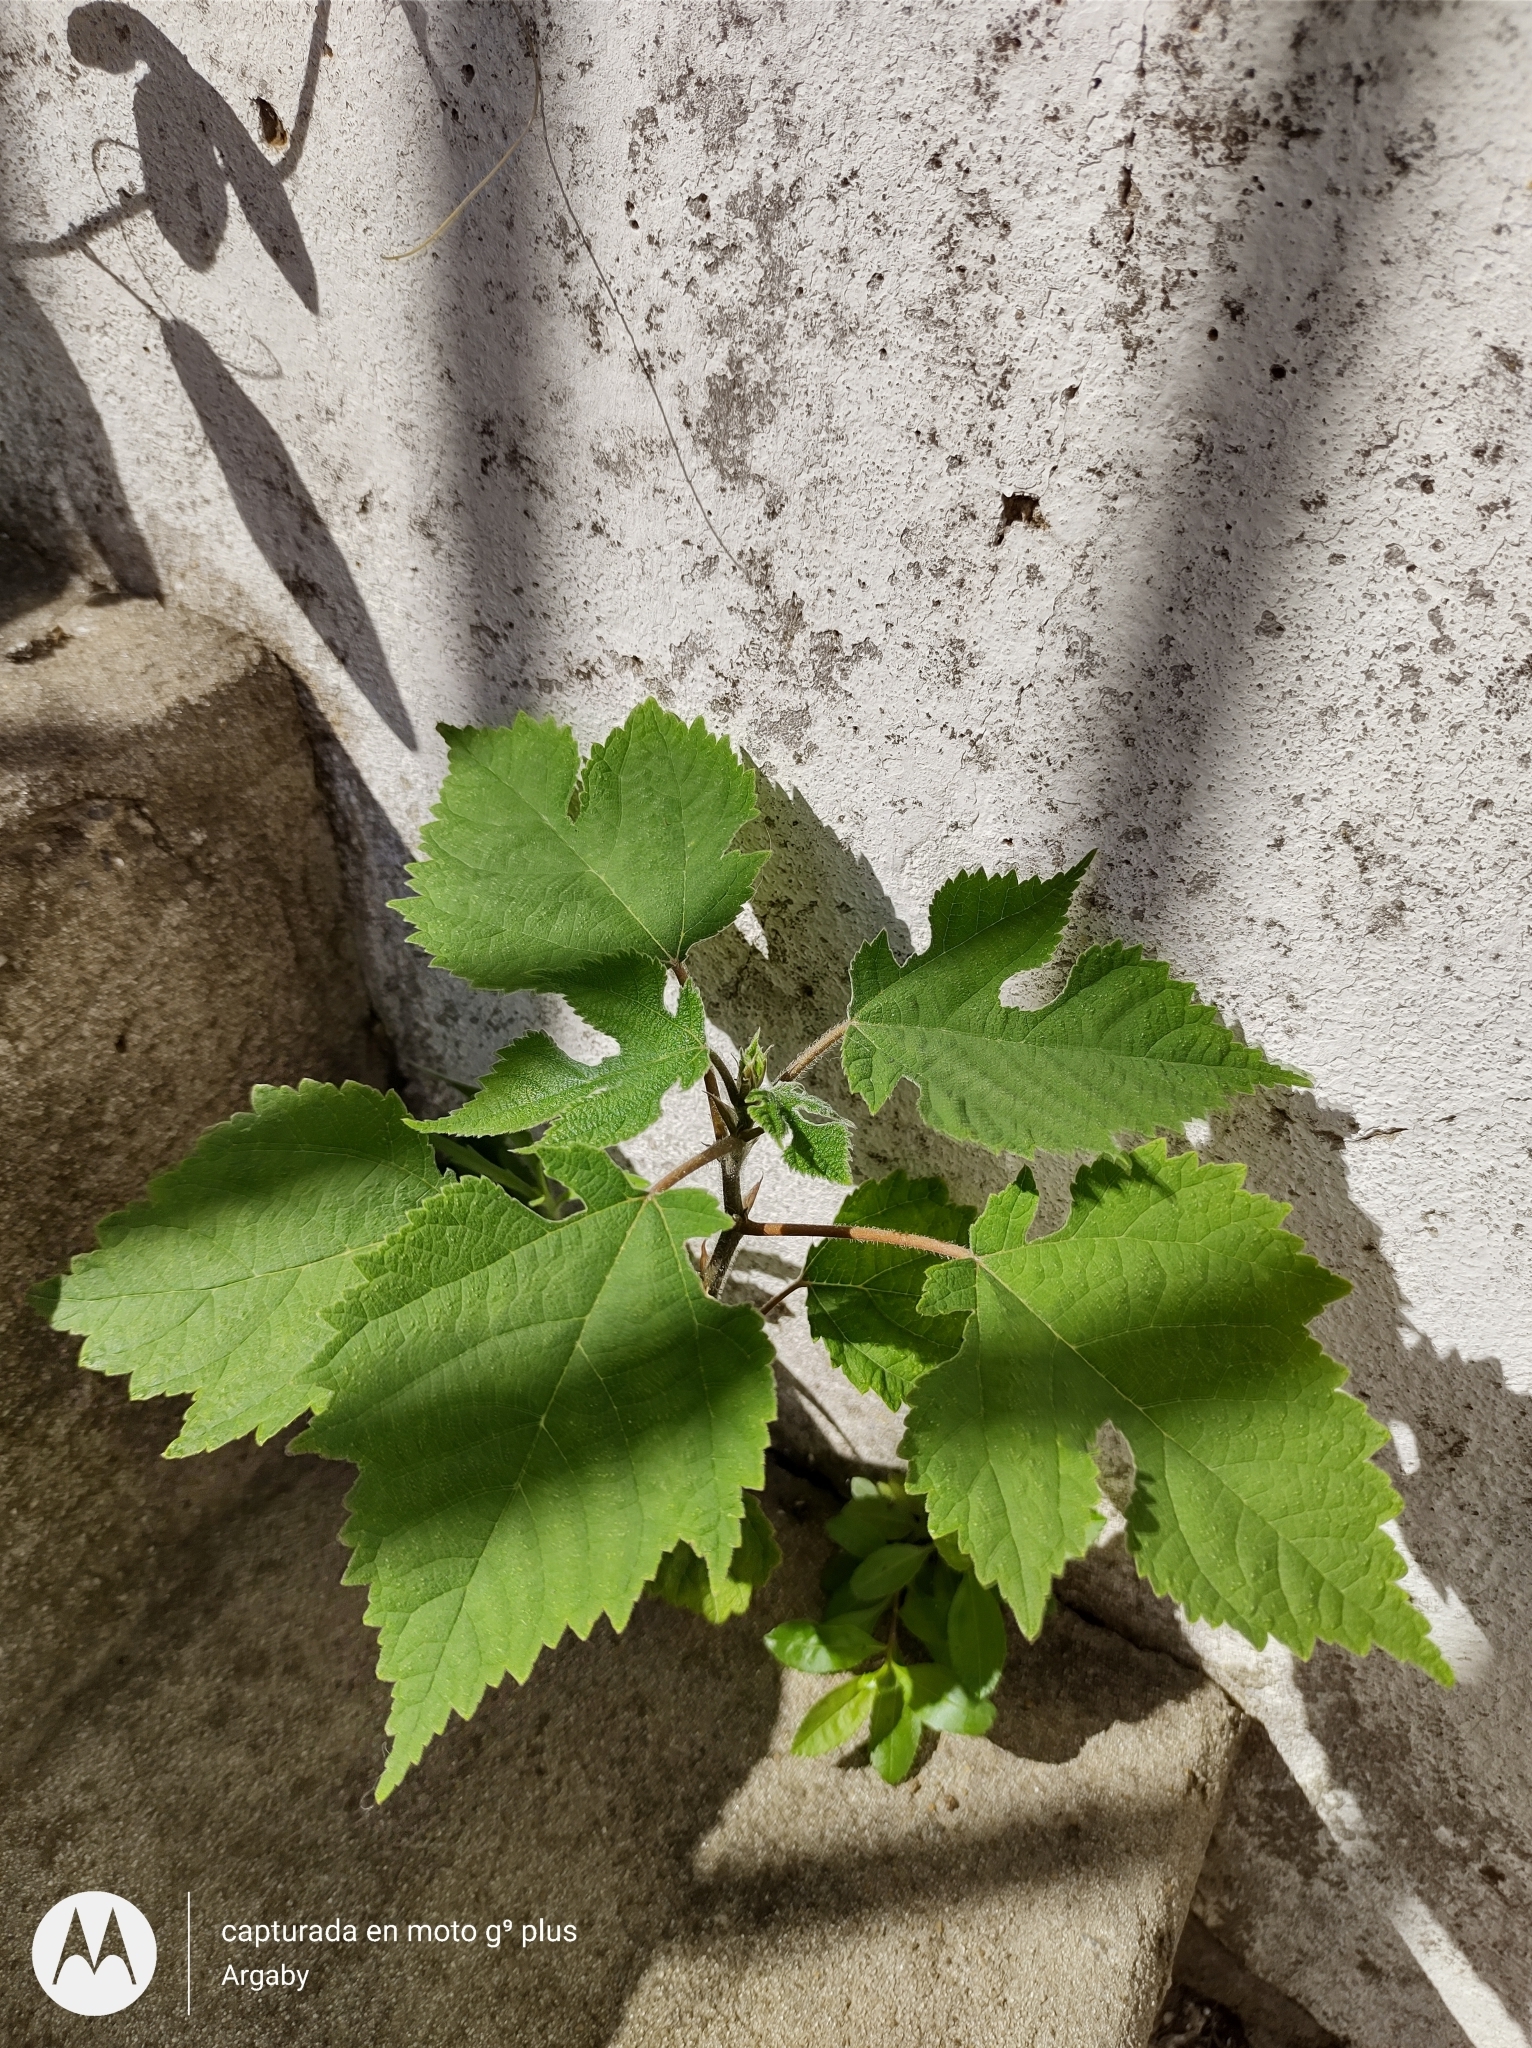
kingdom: Plantae
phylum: Tracheophyta
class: Magnoliopsida
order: Rosales
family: Moraceae
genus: Broussonetia
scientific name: Broussonetia papyrifera
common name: Paper mulberry
